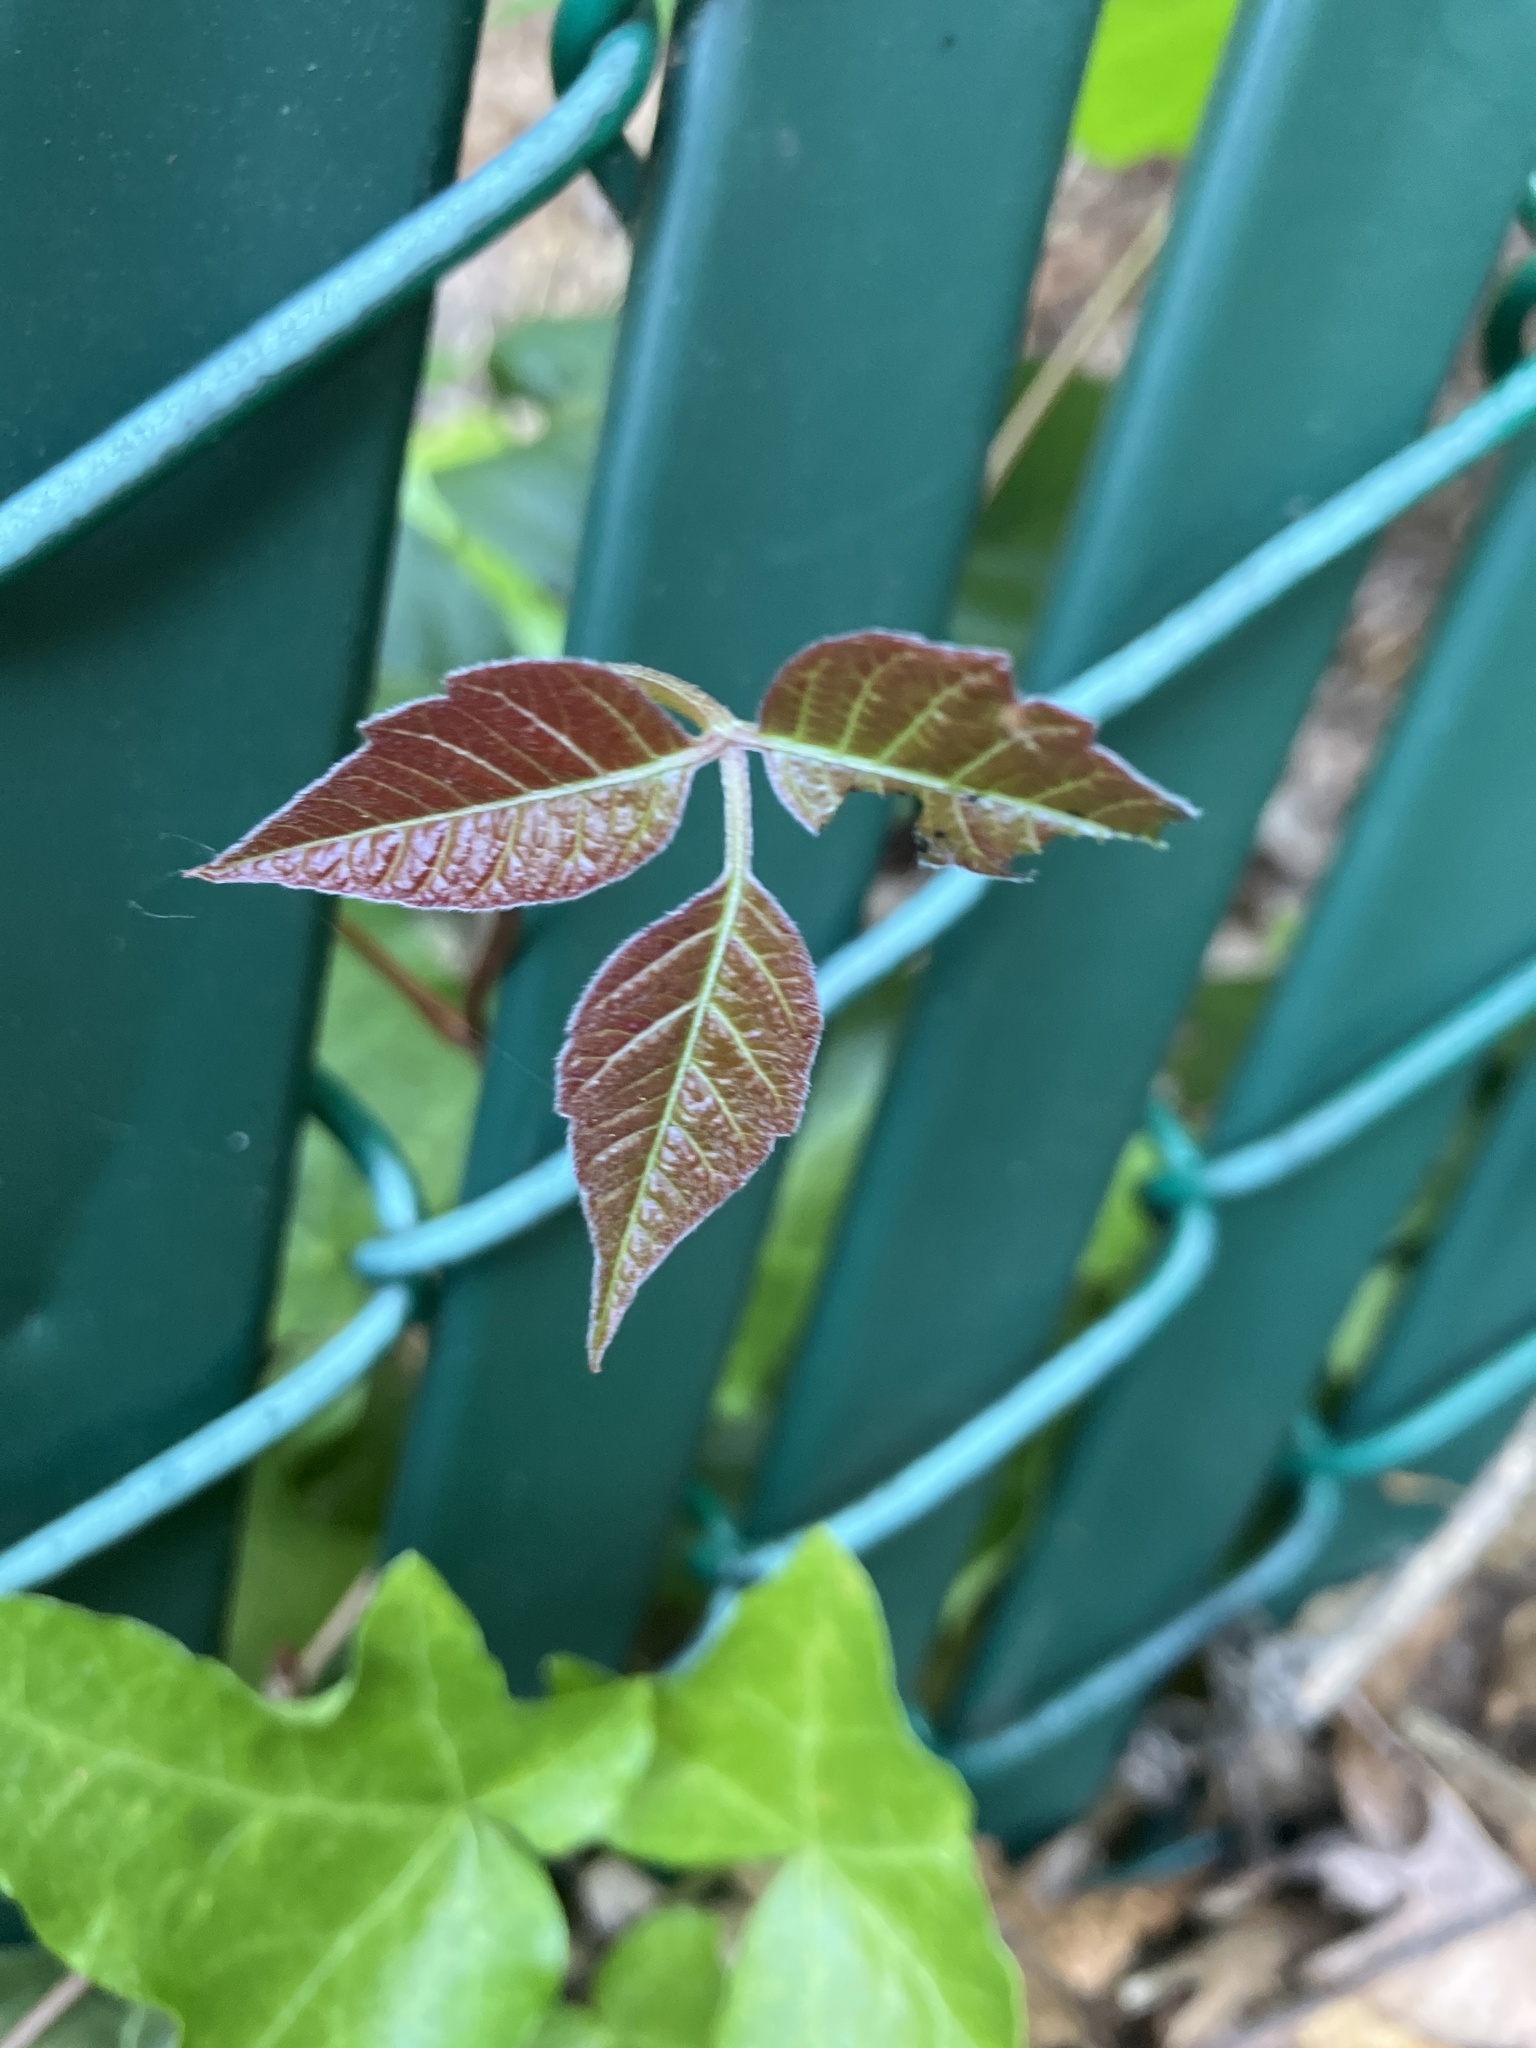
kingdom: Plantae
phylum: Tracheophyta
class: Magnoliopsida
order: Sapindales
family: Anacardiaceae
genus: Toxicodendron
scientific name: Toxicodendron radicans
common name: Poison ivy
